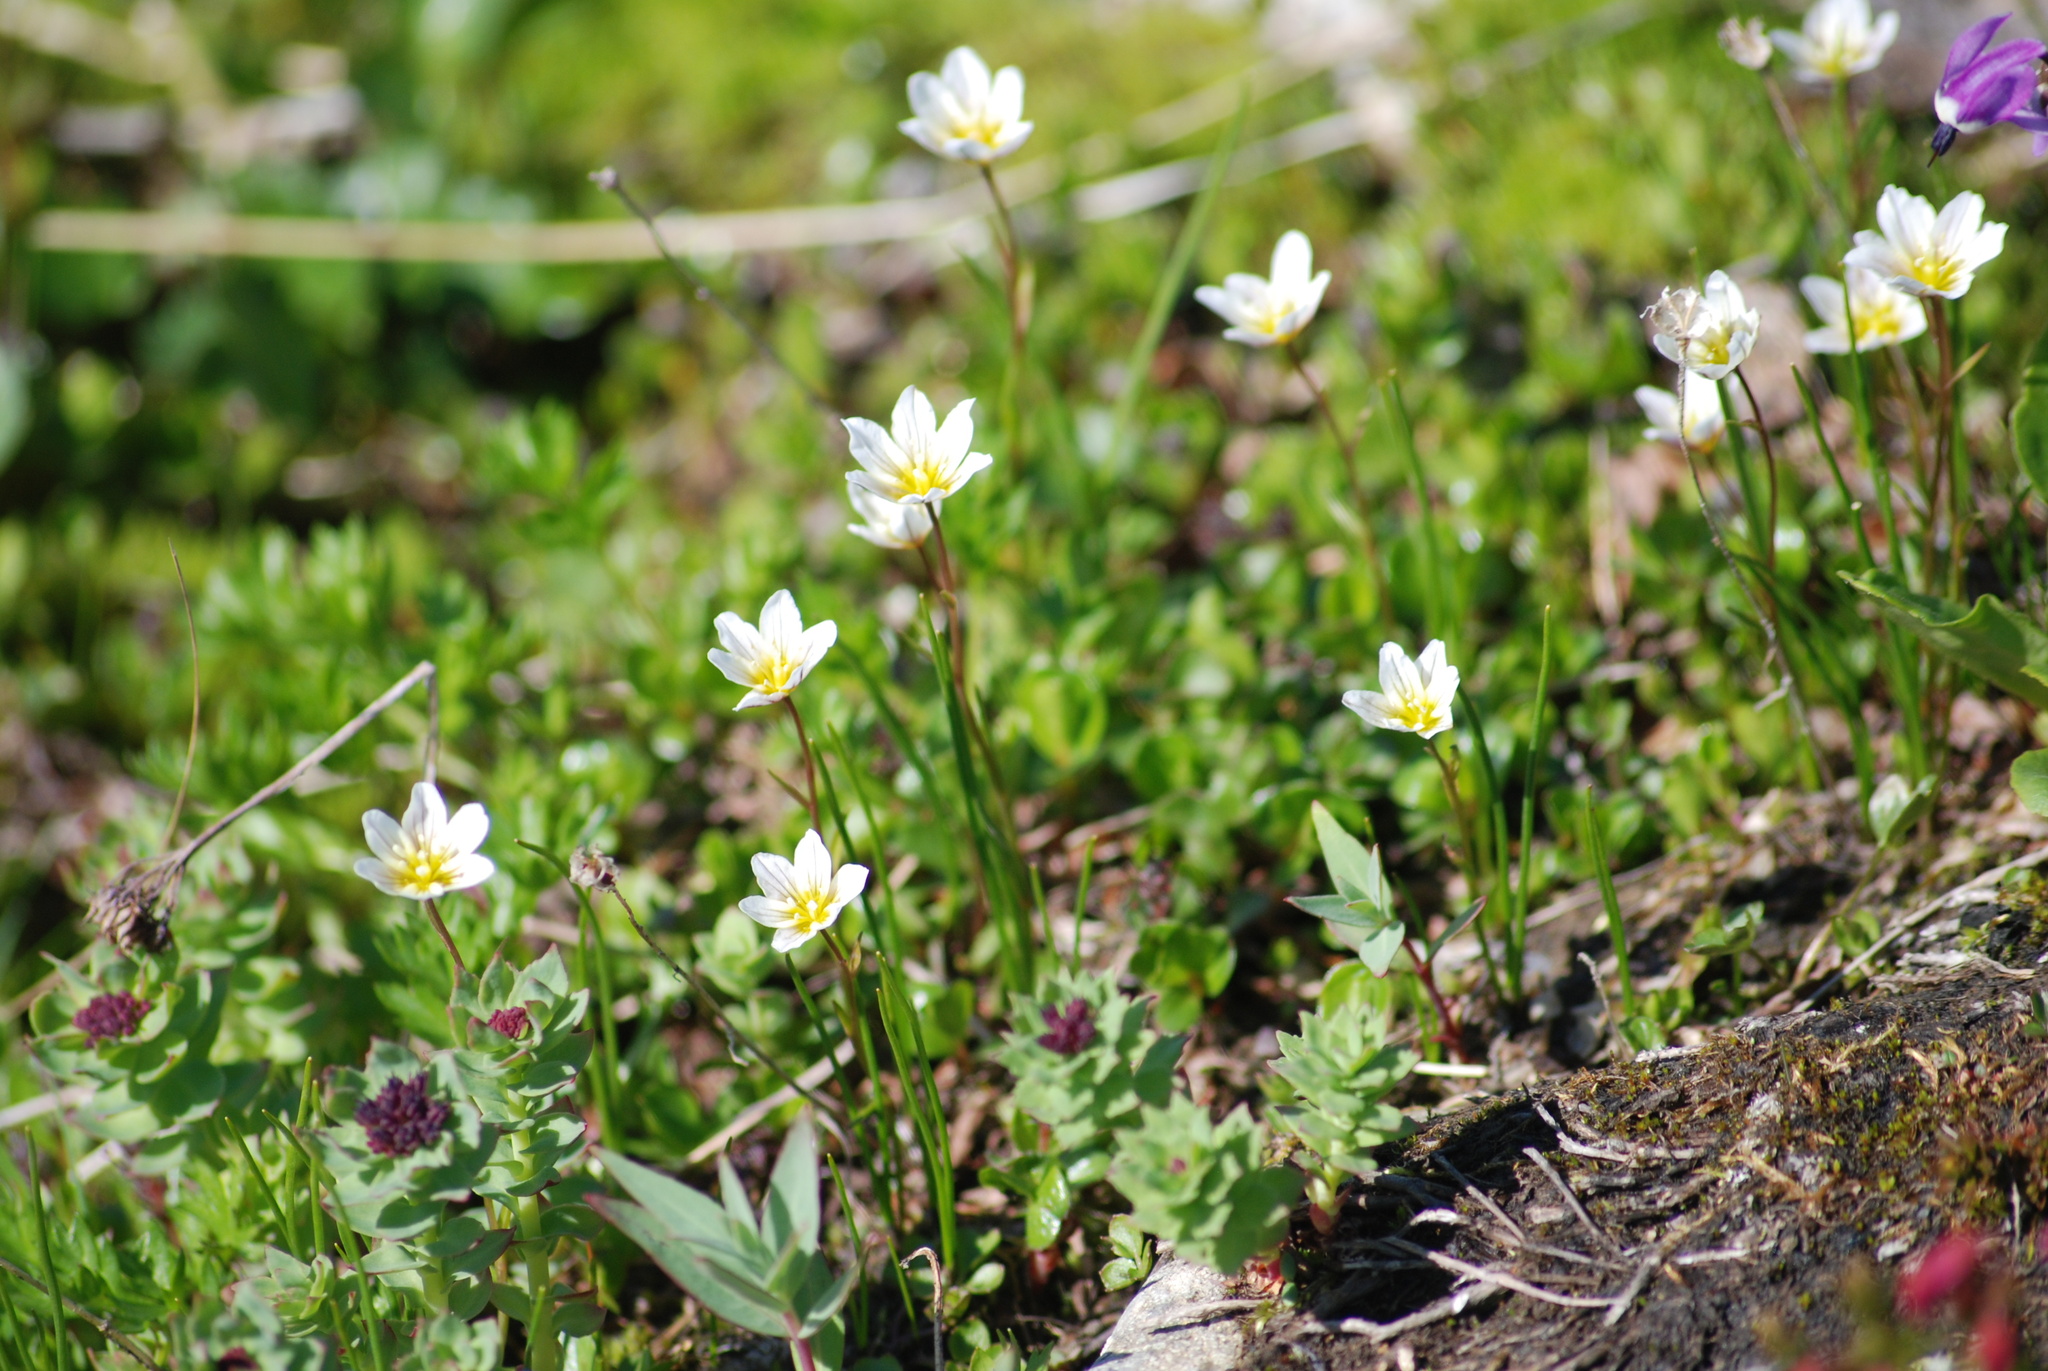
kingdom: Plantae
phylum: Tracheophyta
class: Liliopsida
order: Liliales
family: Liliaceae
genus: Gagea
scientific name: Gagea serotina
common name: Snowdon lily
